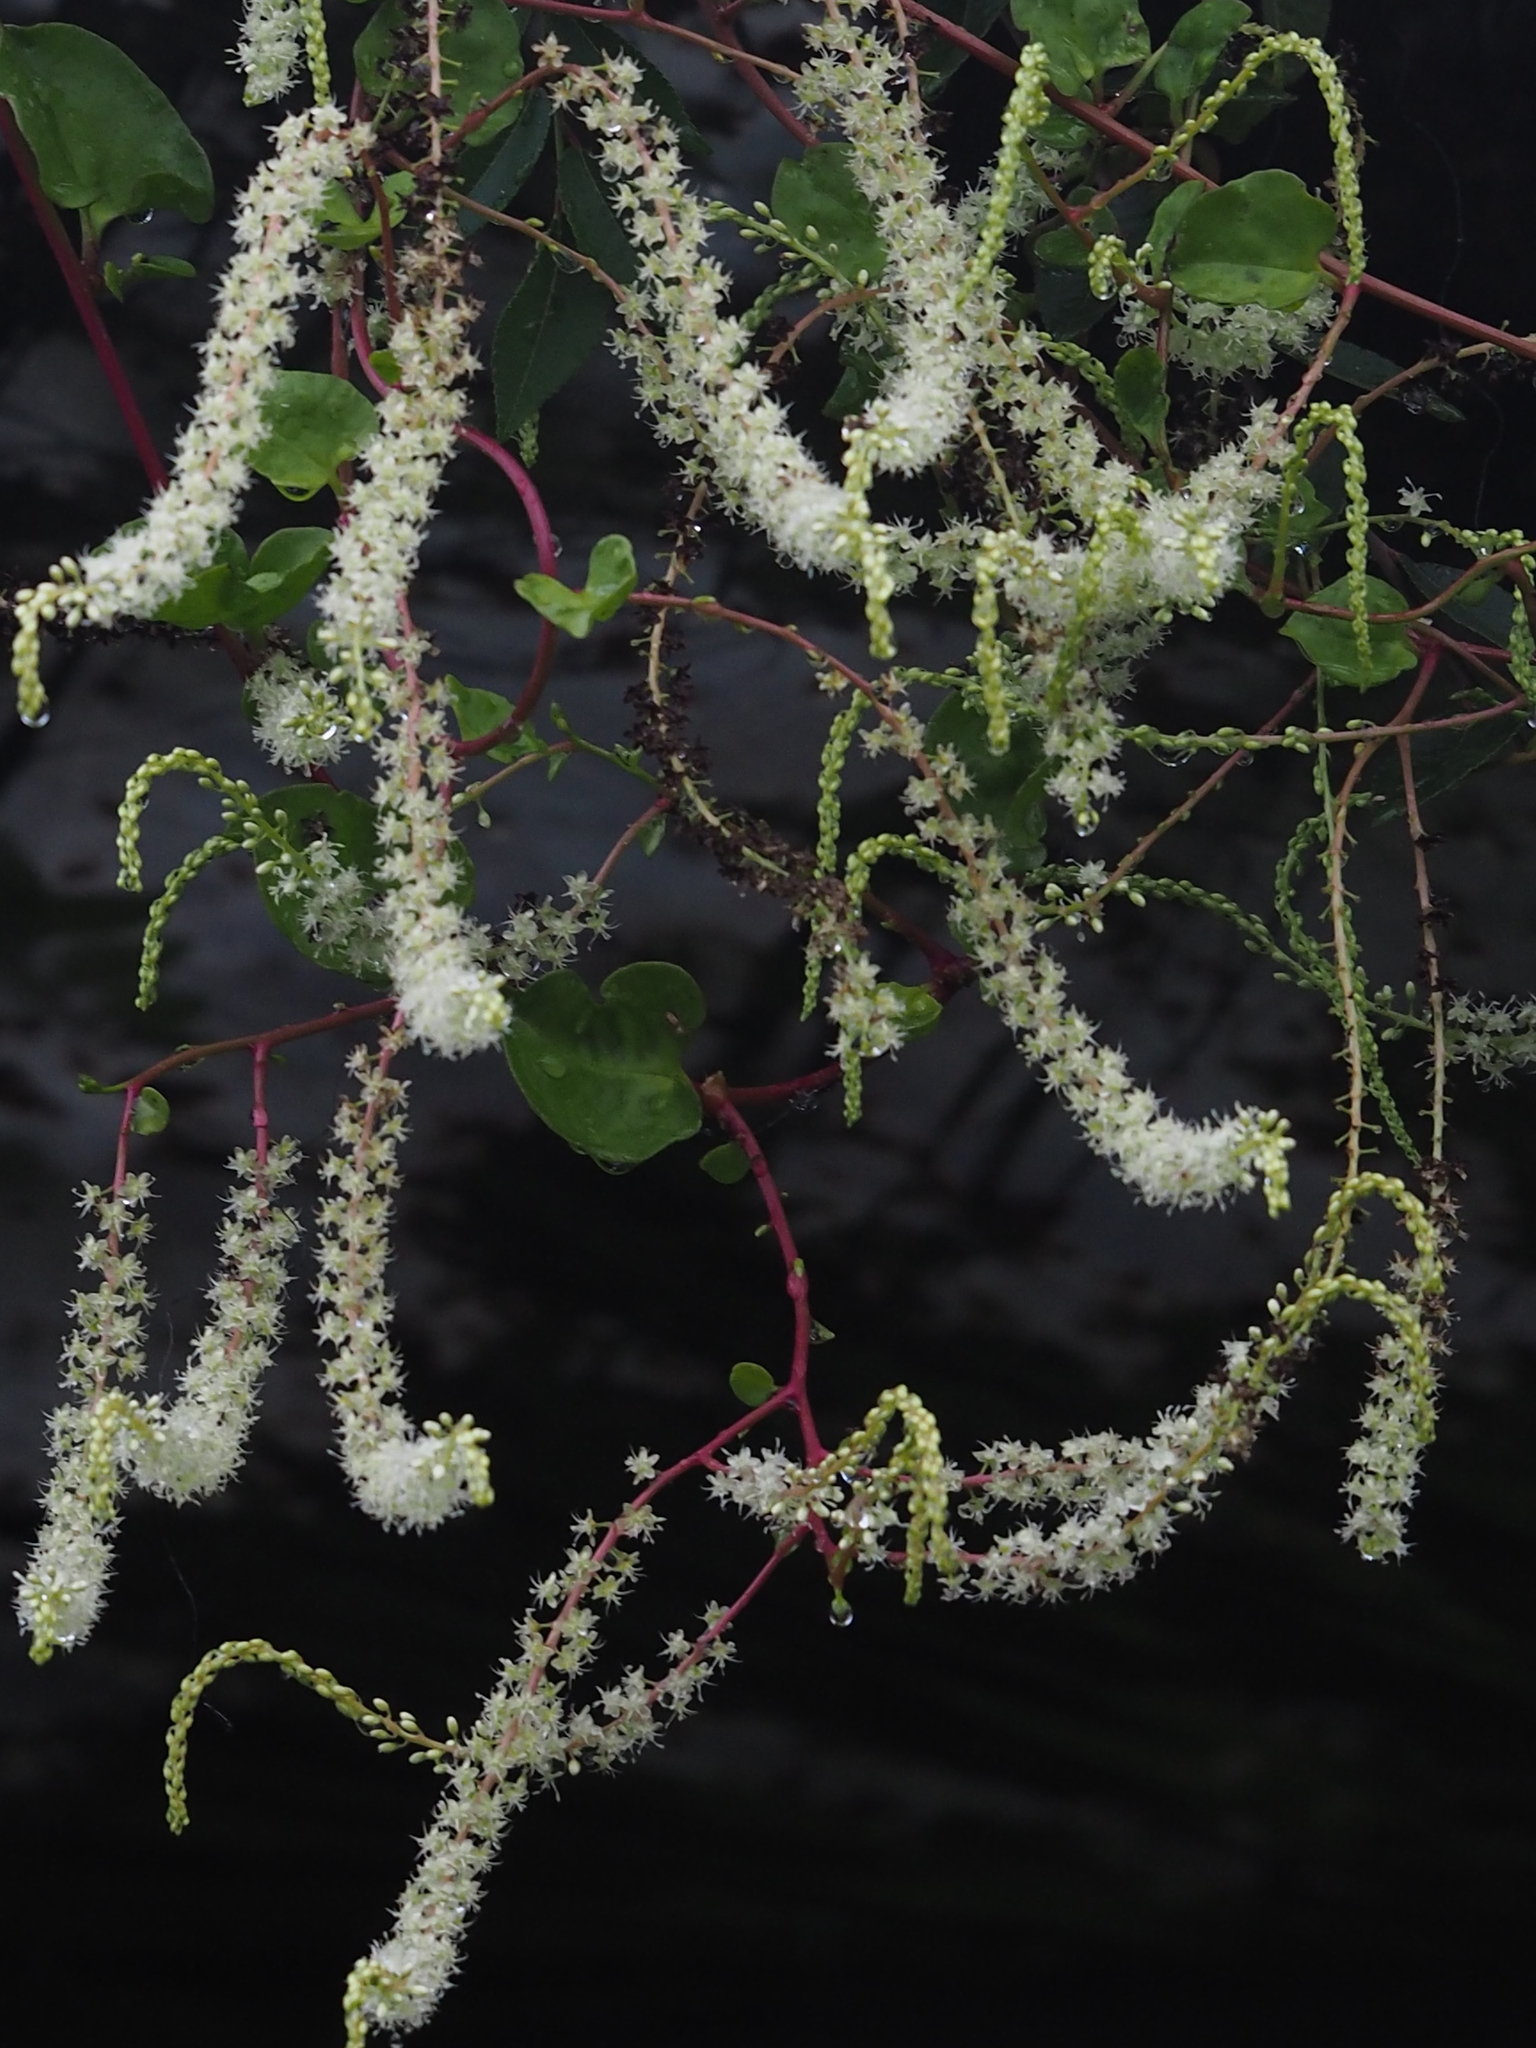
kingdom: Plantae
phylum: Tracheophyta
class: Magnoliopsida
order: Caryophyllales
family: Basellaceae
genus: Anredera
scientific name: Anredera cordifolia
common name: Heartleaf madeiravine
